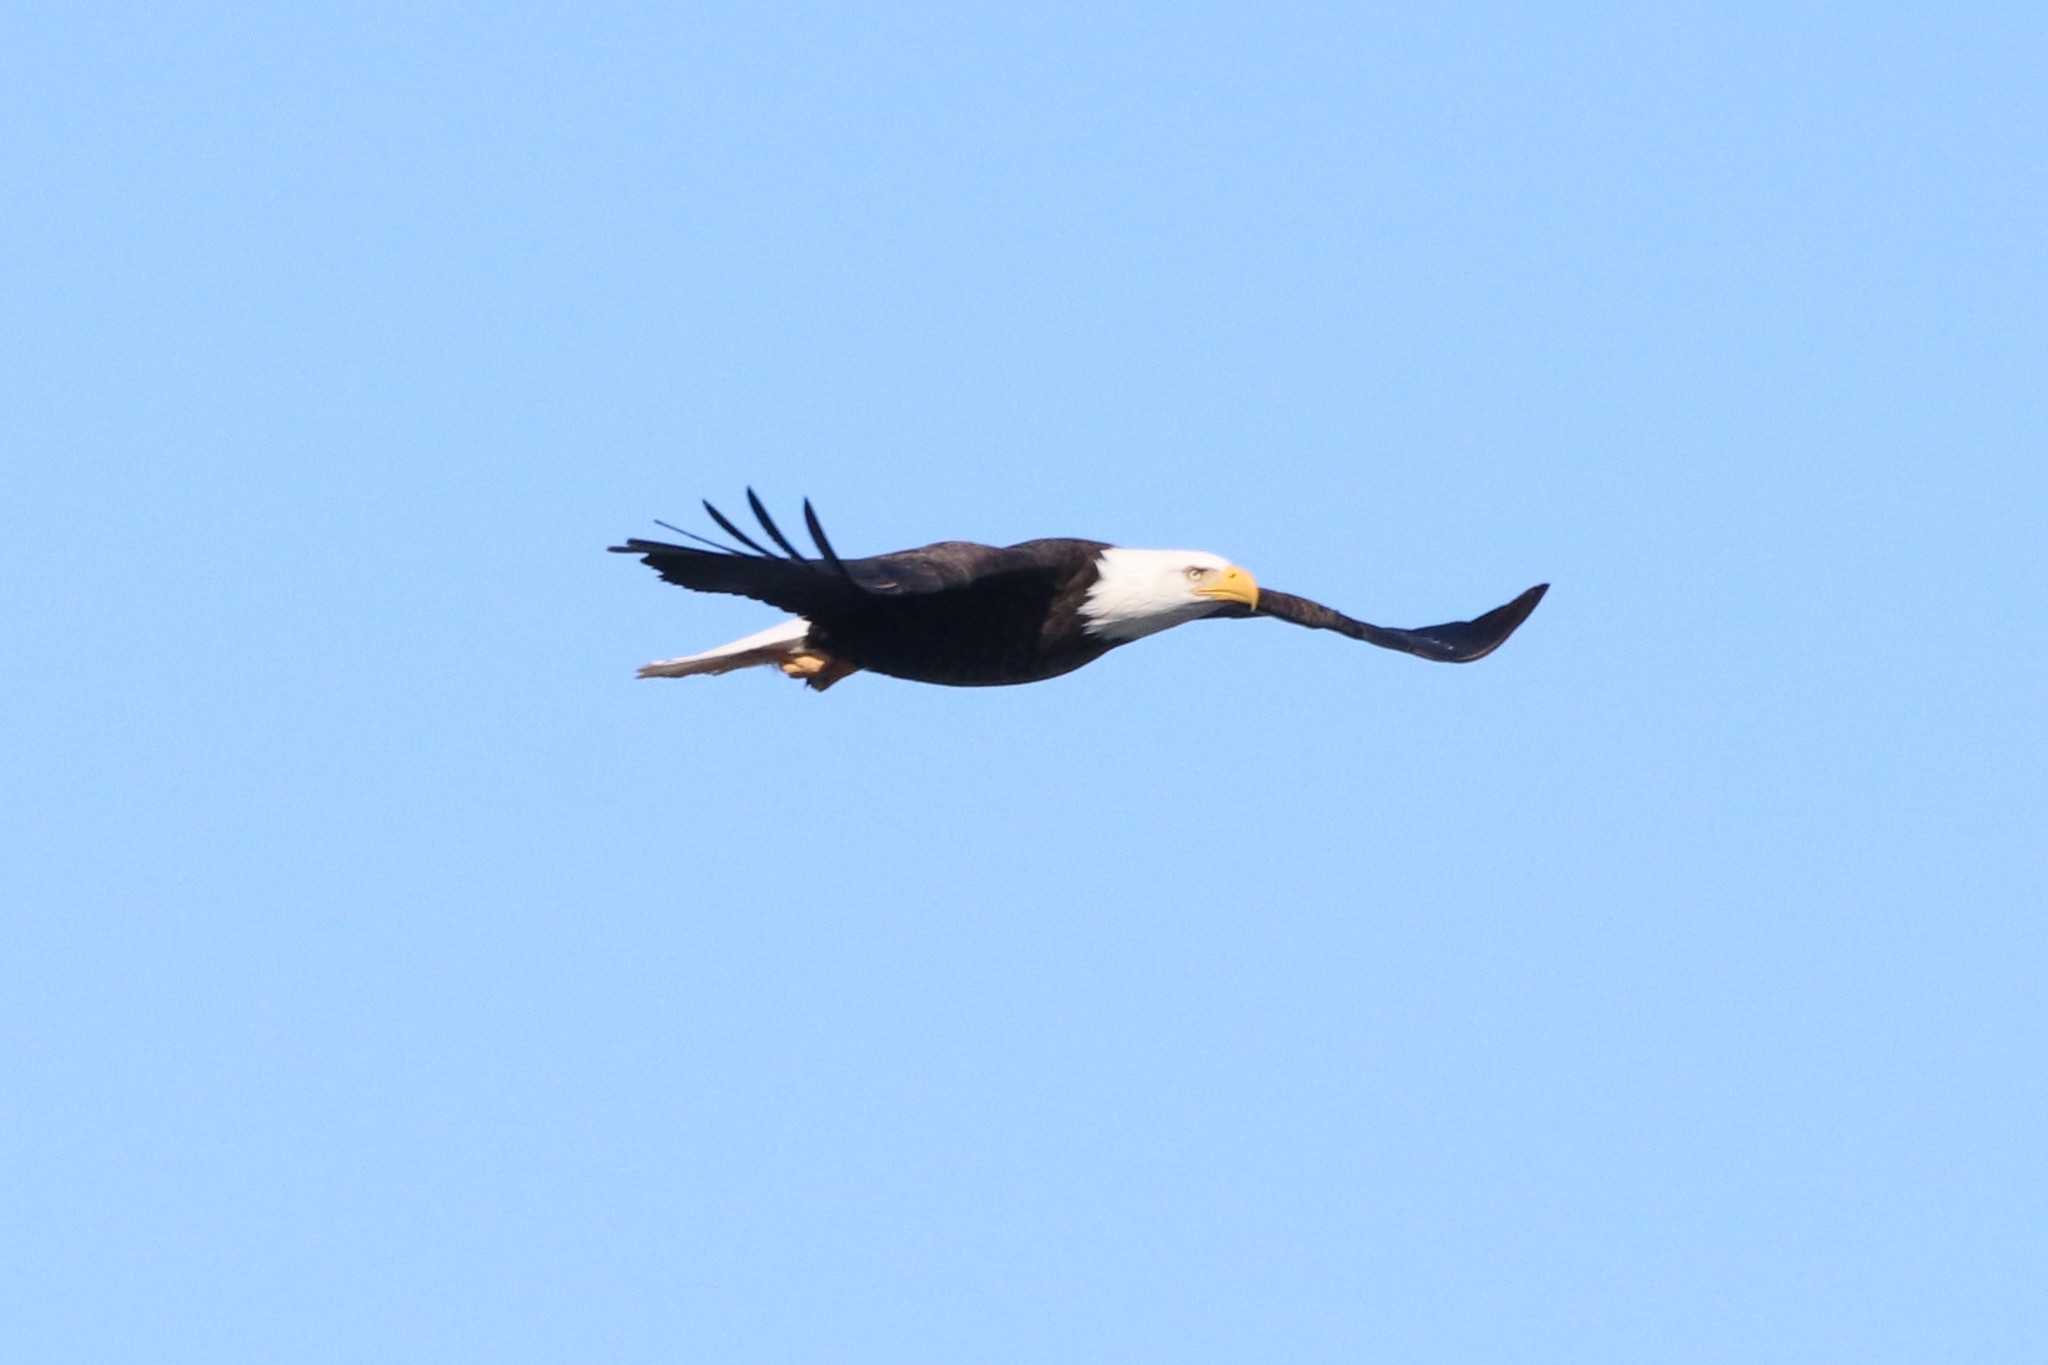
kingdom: Animalia
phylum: Chordata
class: Aves
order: Accipitriformes
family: Accipitridae
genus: Haliaeetus
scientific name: Haliaeetus leucocephalus
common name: Bald eagle
